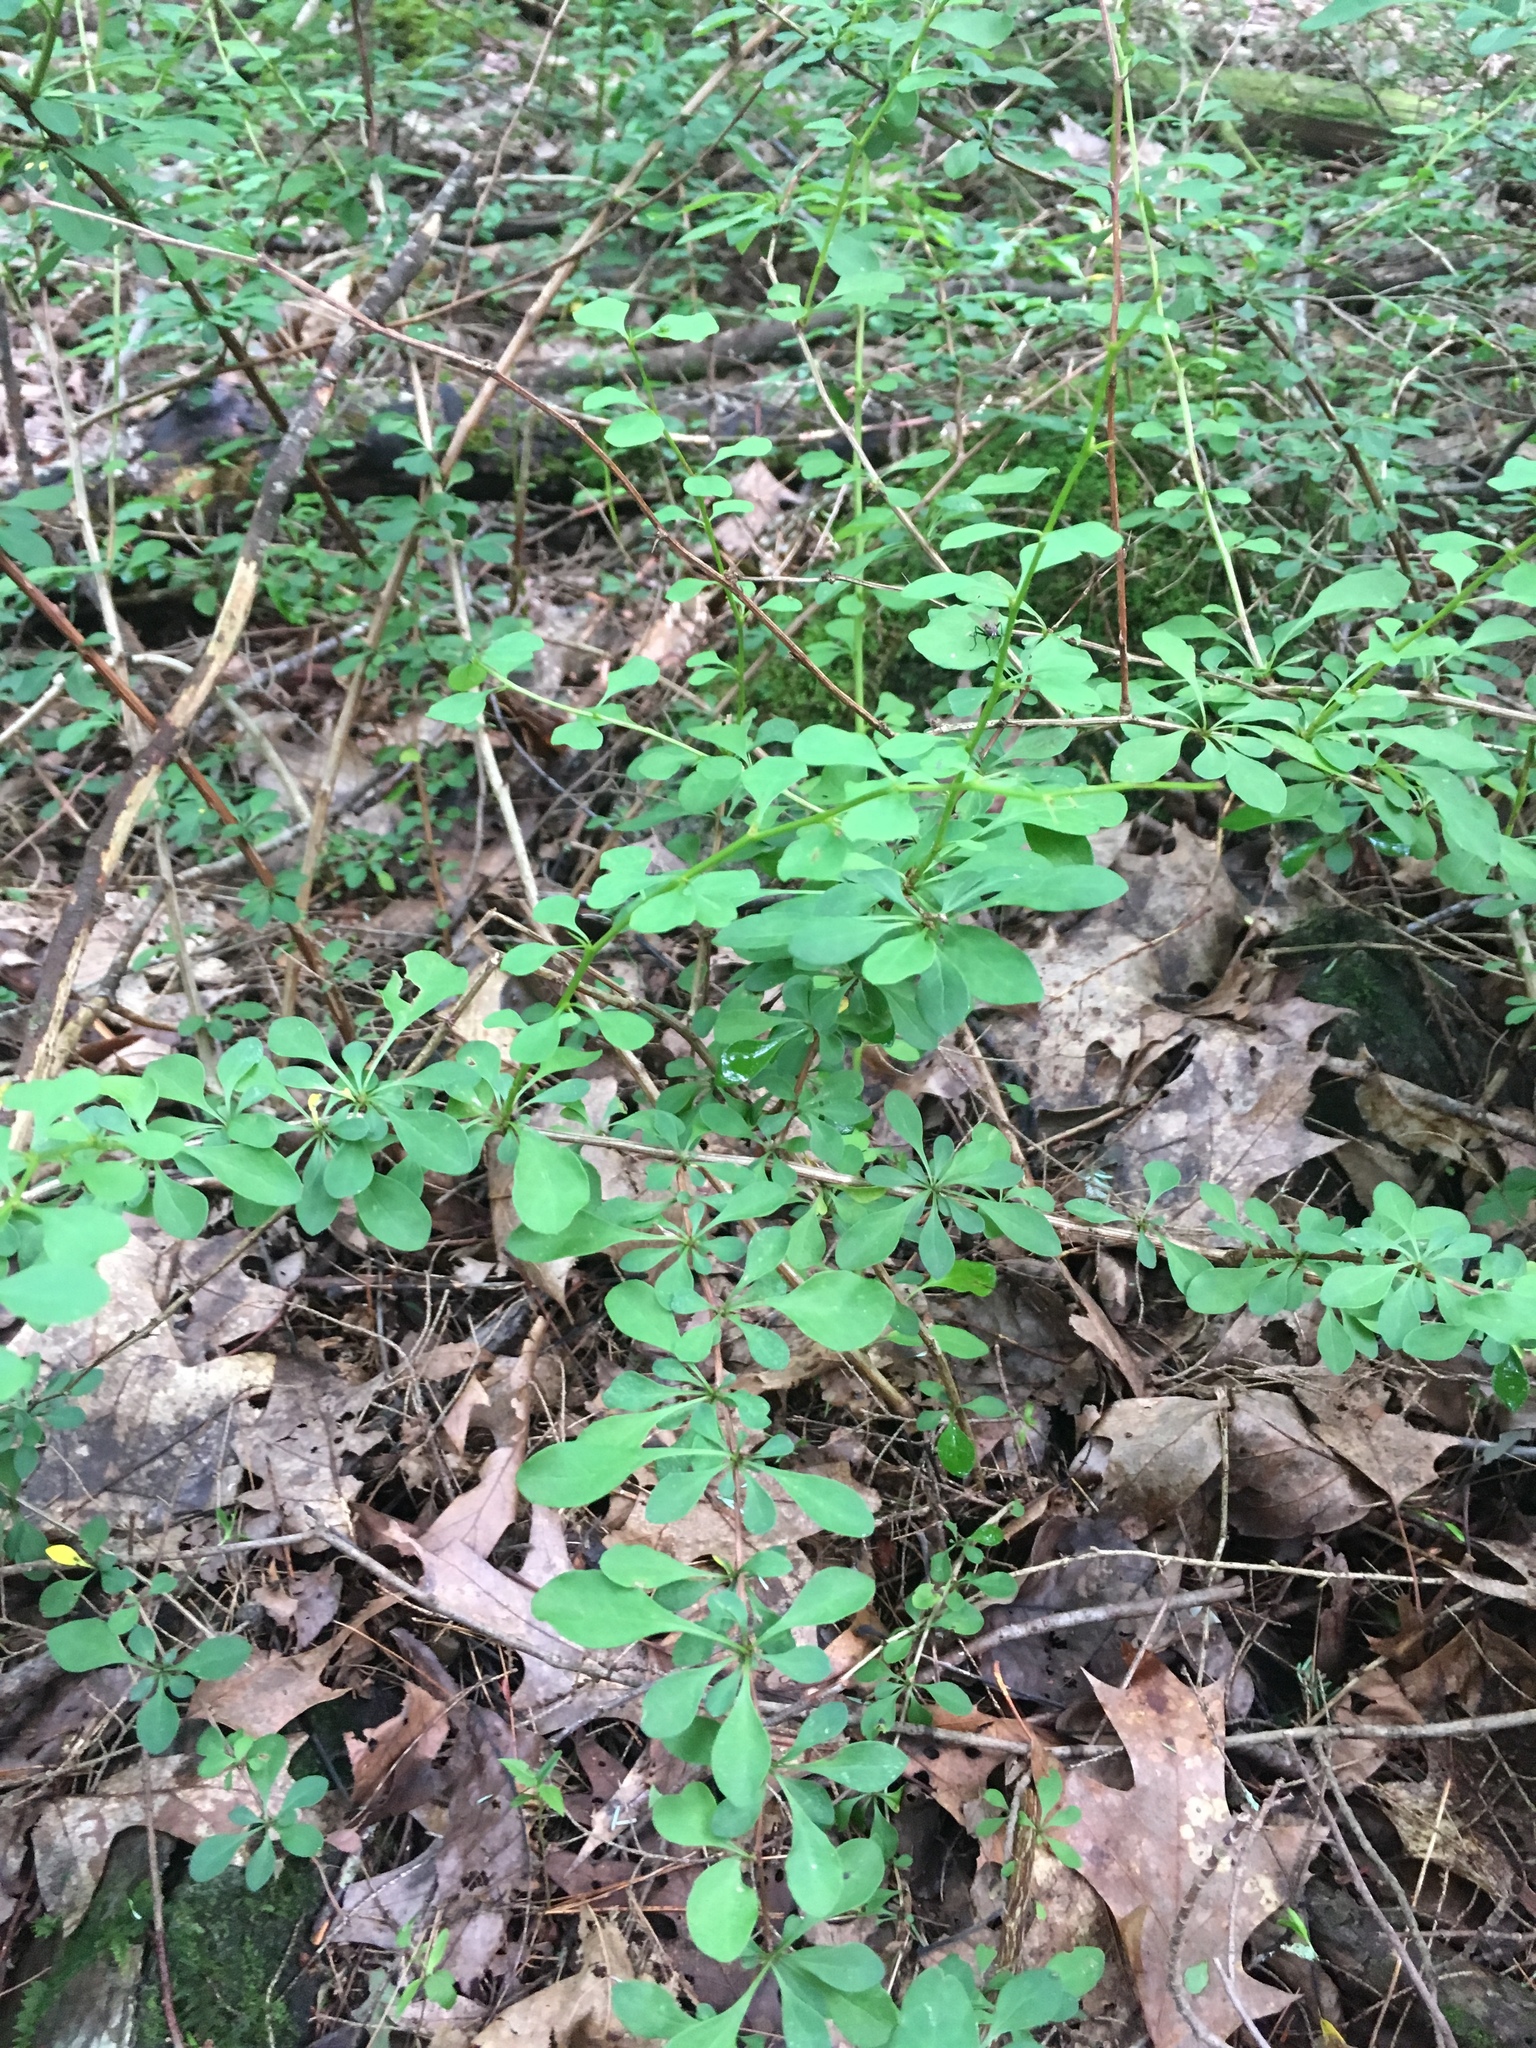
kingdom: Plantae
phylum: Tracheophyta
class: Magnoliopsida
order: Ranunculales
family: Berberidaceae
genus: Berberis
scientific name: Berberis thunbergii
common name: Japanese barberry
